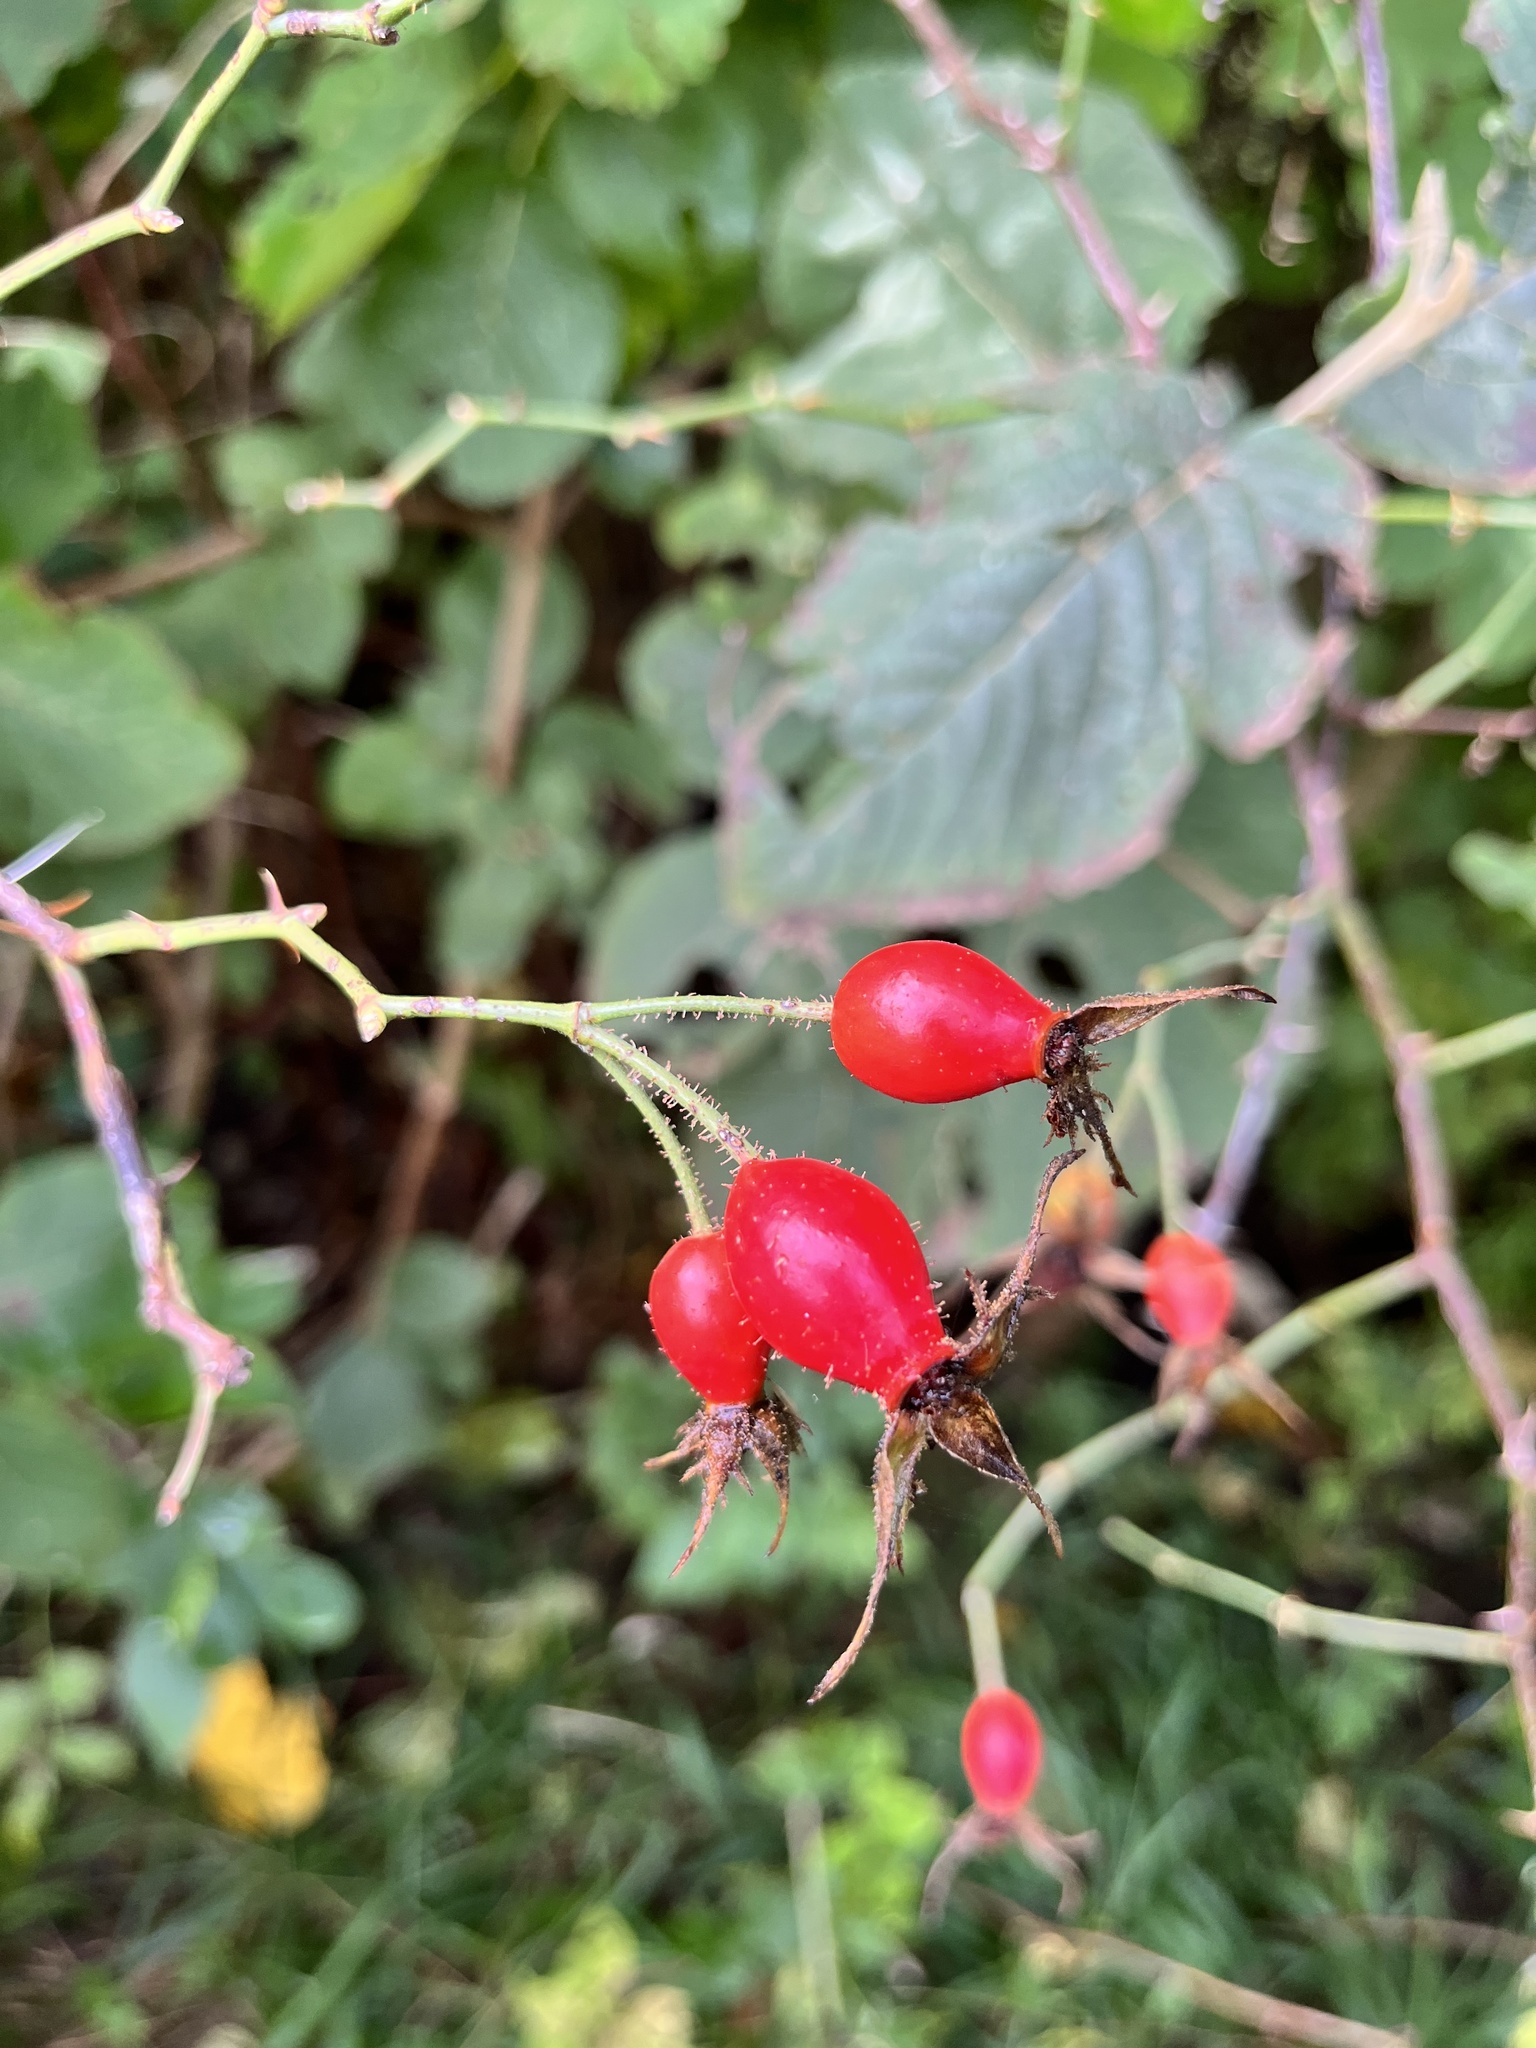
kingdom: Plantae
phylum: Tracheophyta
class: Magnoliopsida
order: Rosales
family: Rosaceae
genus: Rosa
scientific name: Rosa rubiginosa
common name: Sweet-briar
